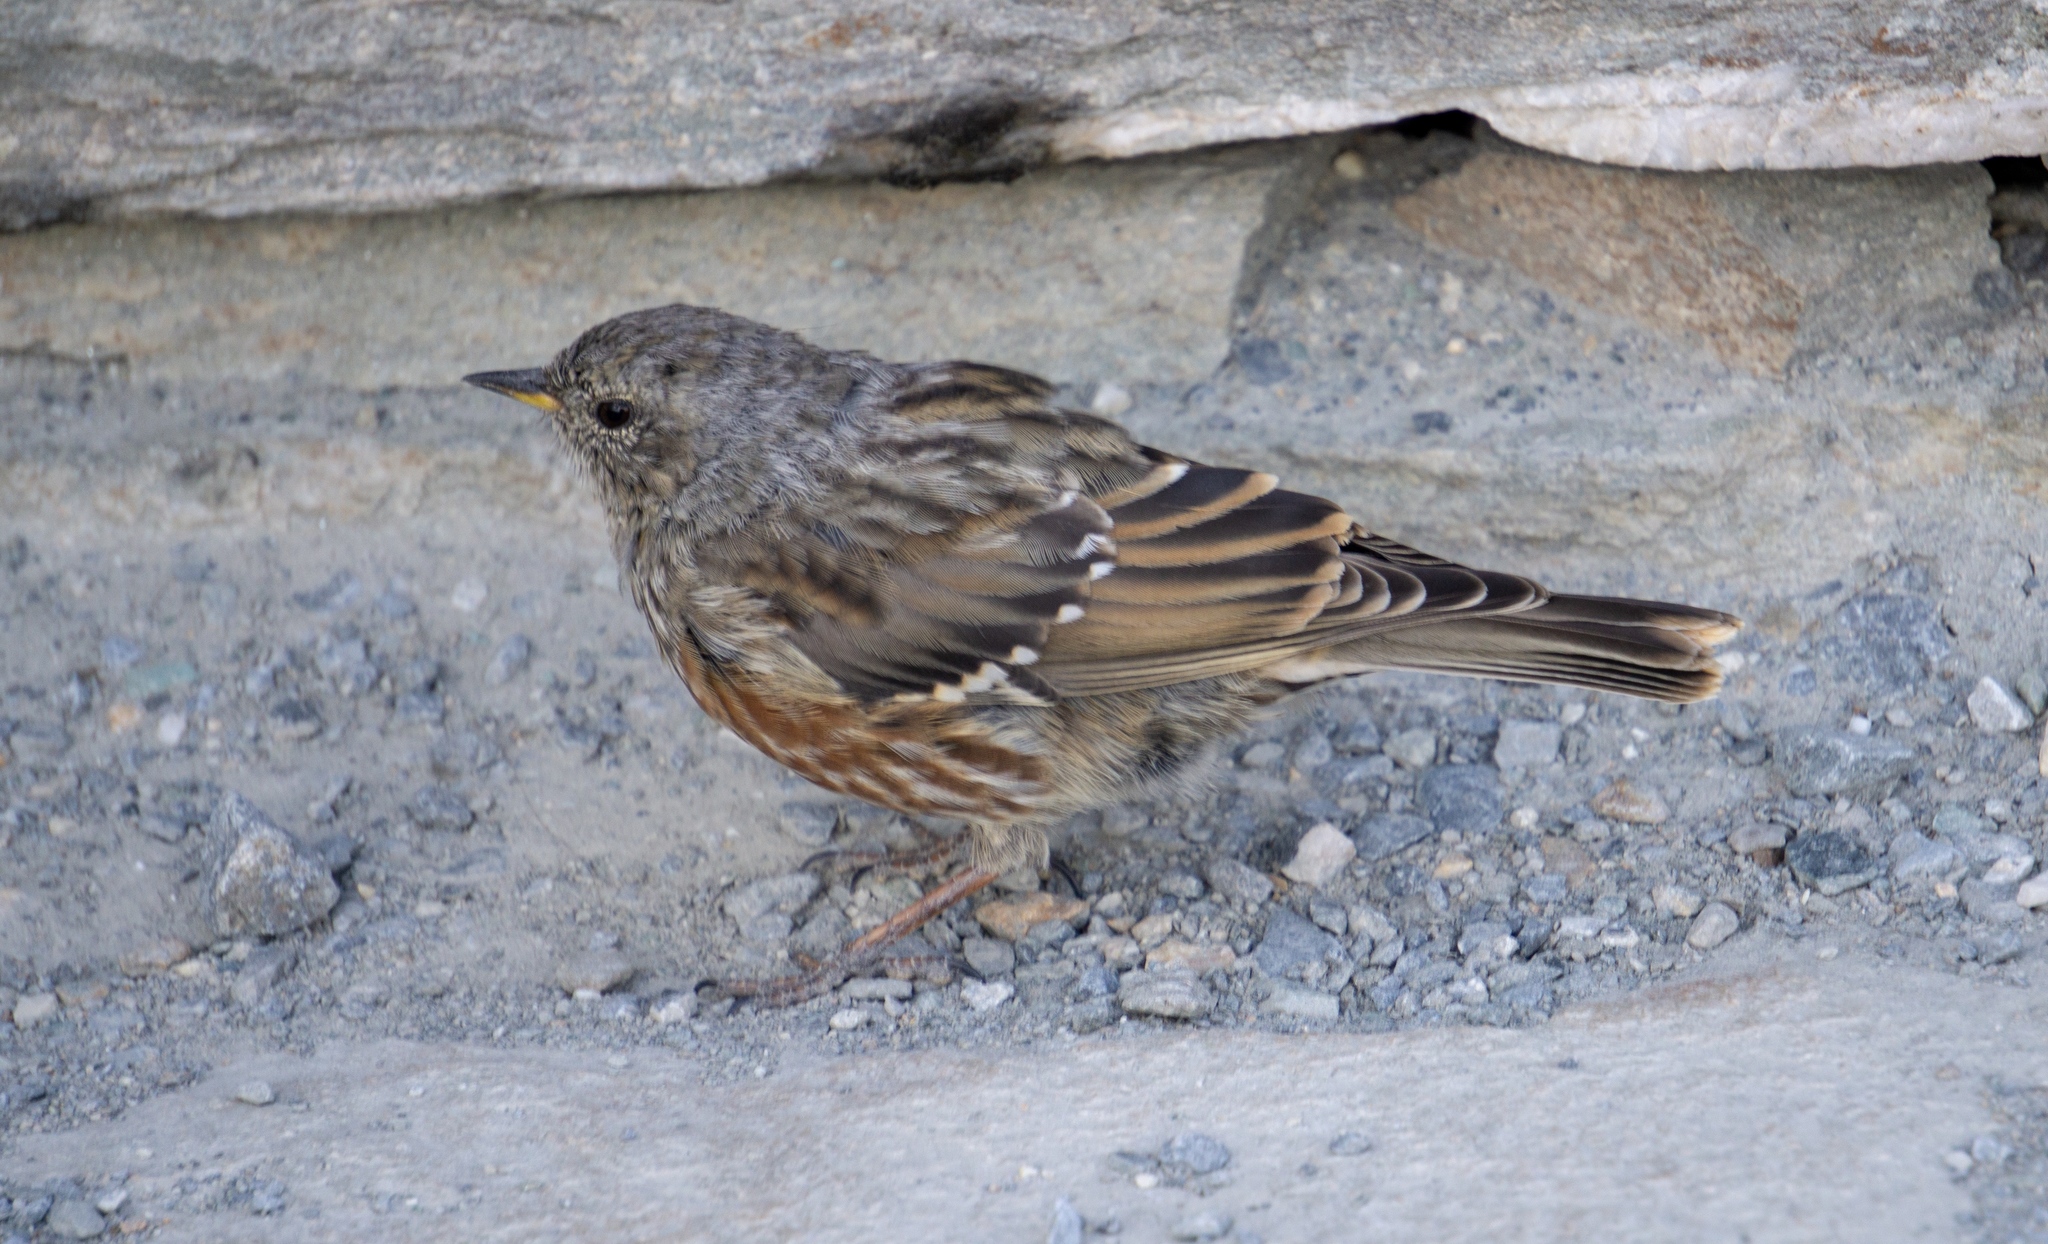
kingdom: Animalia
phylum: Chordata
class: Aves
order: Passeriformes
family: Prunellidae
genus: Prunella
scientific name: Prunella collaris
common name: Alpine accentor
